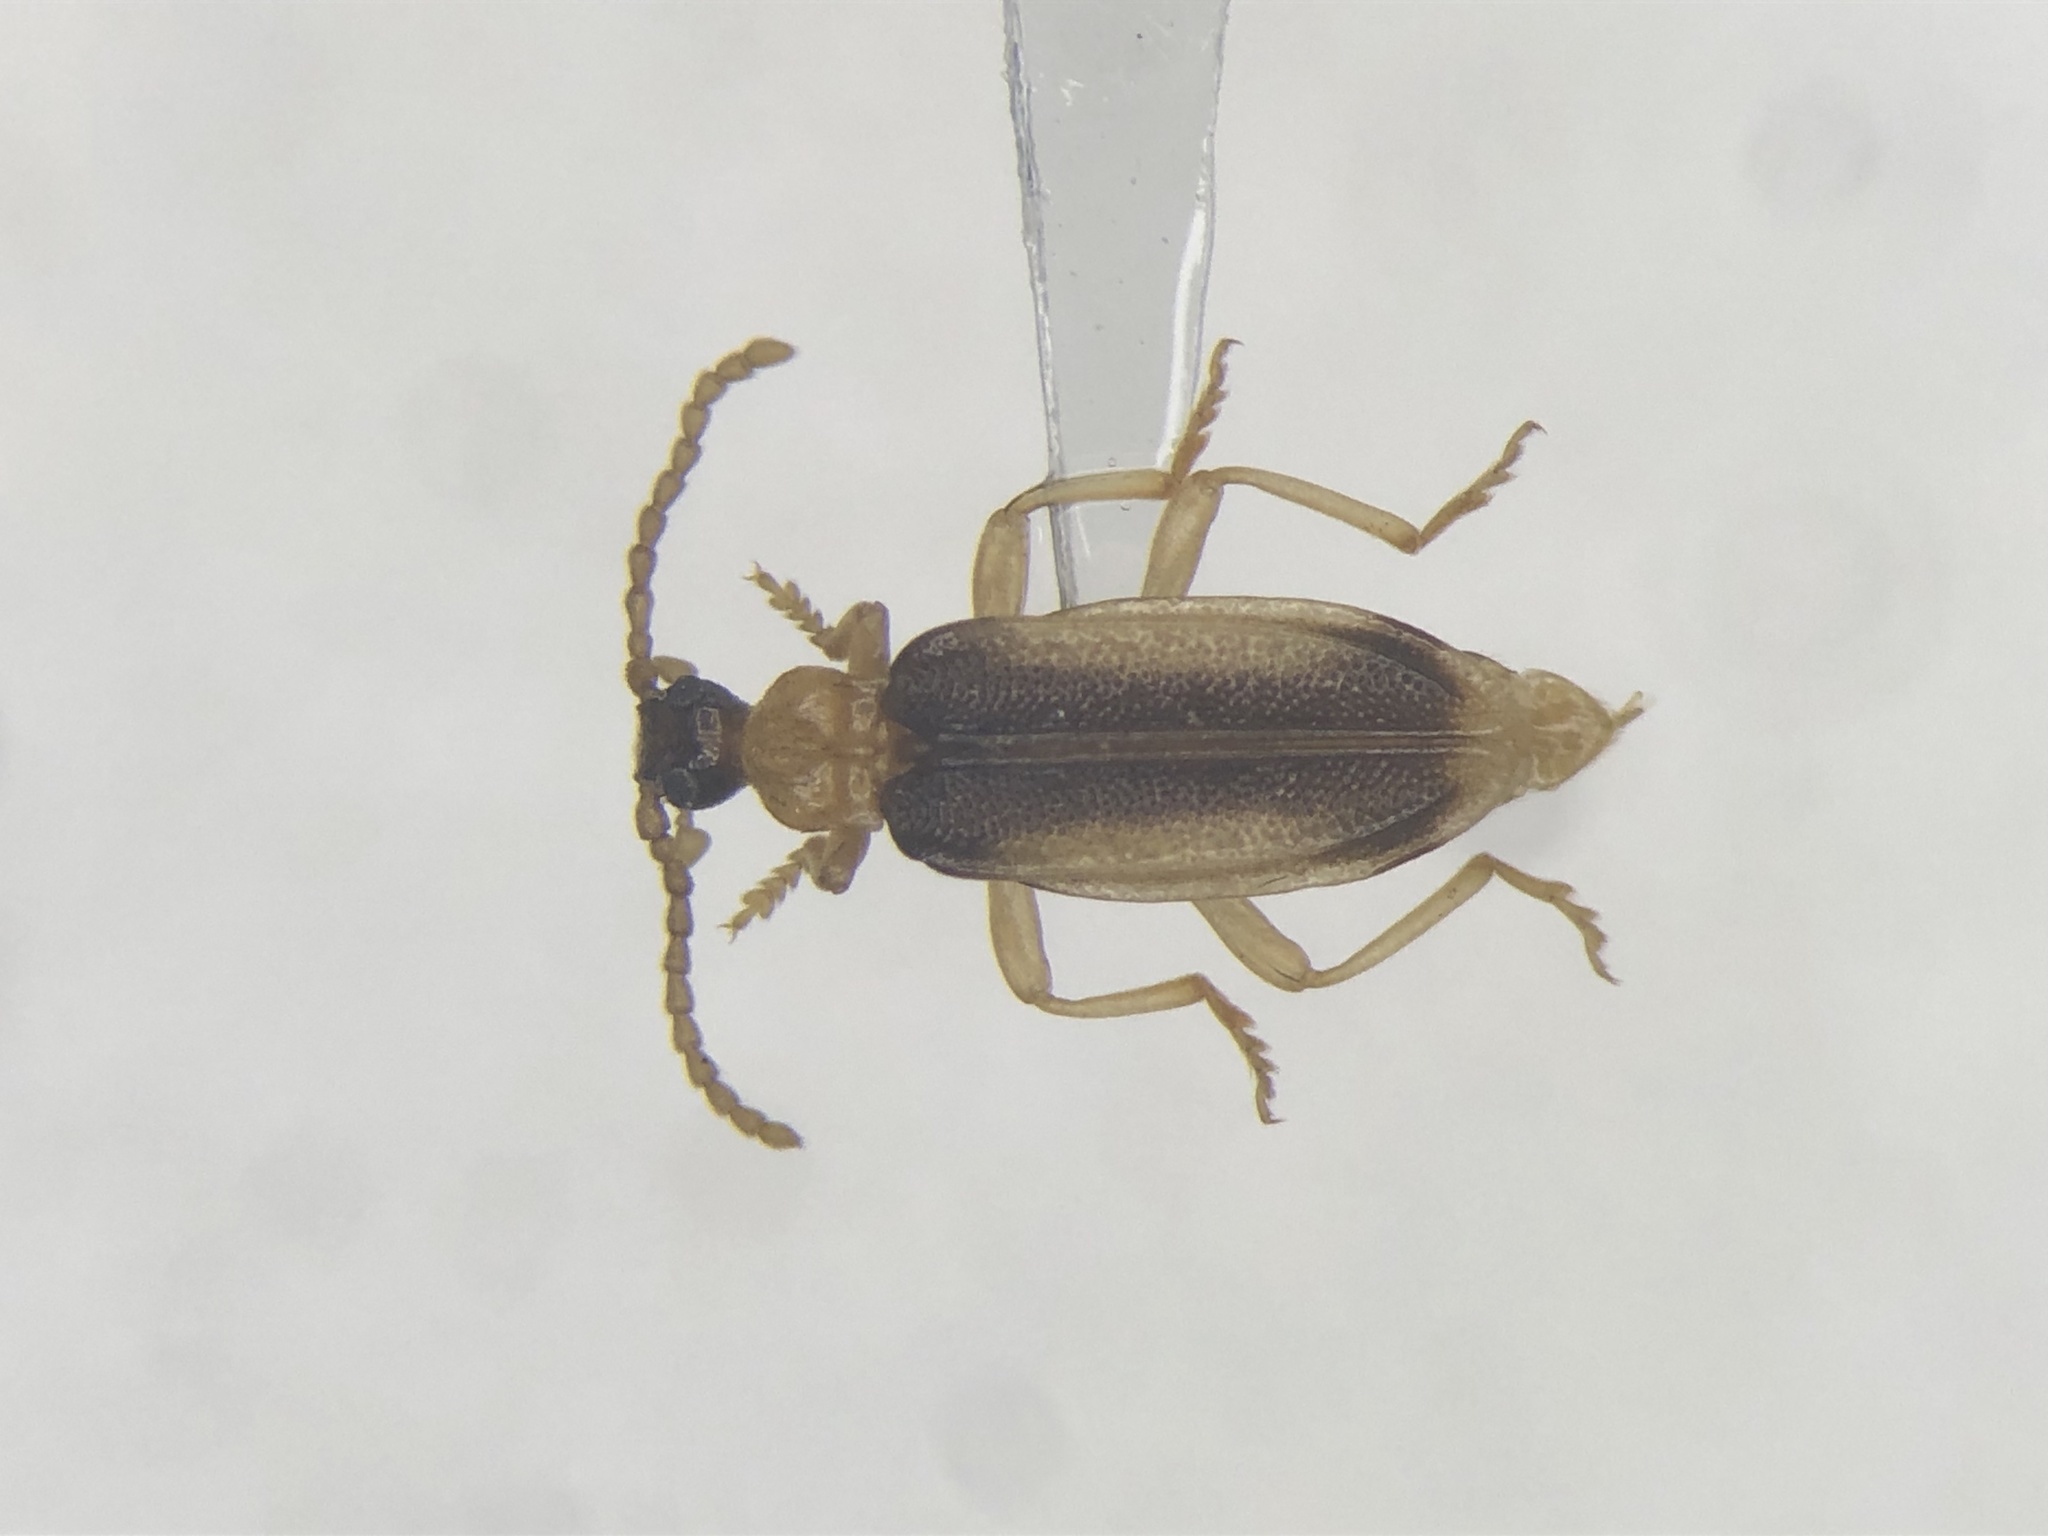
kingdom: Animalia
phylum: Arthropoda
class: Insecta
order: Coleoptera
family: Anthicidae
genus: Ischalia
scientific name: Ischalia costata
